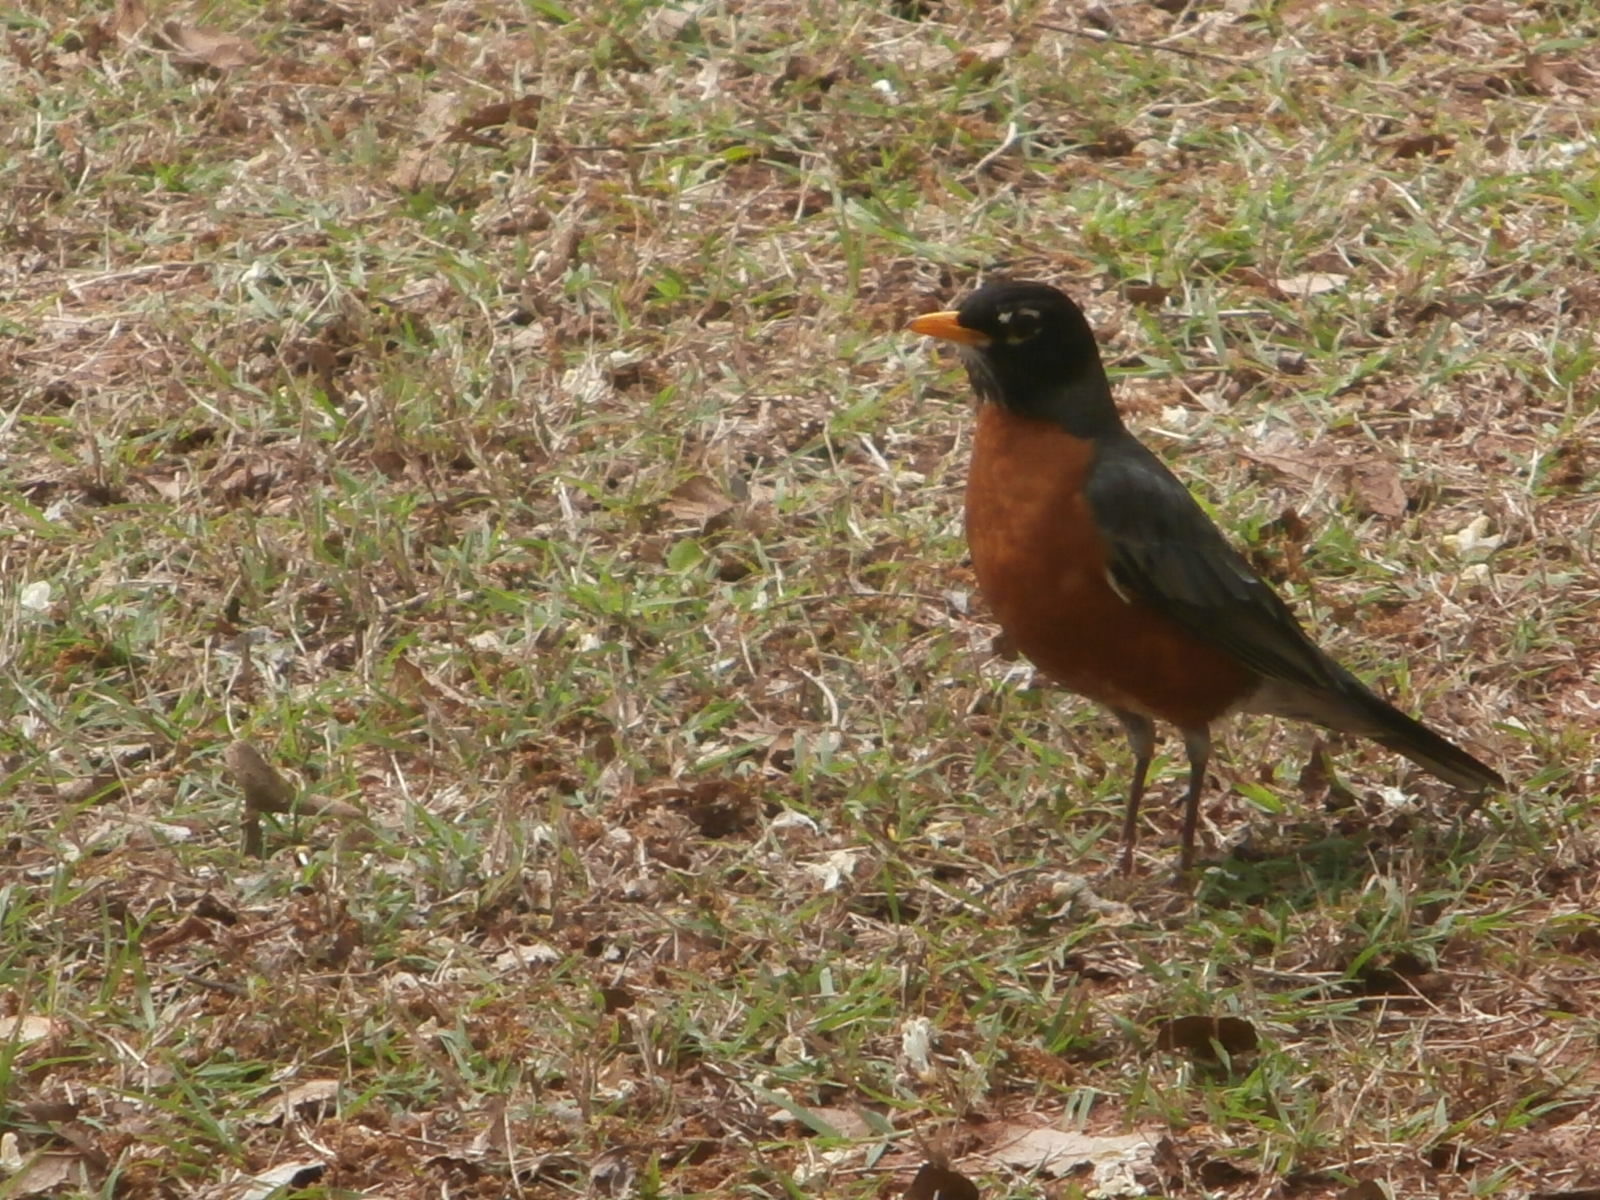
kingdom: Animalia
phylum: Chordata
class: Aves
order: Passeriformes
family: Turdidae
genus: Turdus
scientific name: Turdus migratorius
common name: American robin
